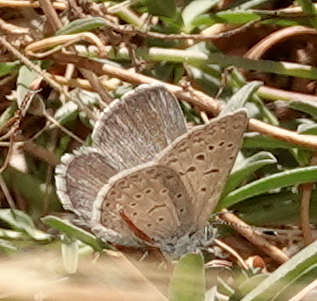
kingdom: Animalia
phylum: Arthropoda
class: Insecta
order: Lepidoptera
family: Lycaenidae
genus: Zizeeria
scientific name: Zizeeria knysna
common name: African grass blue
